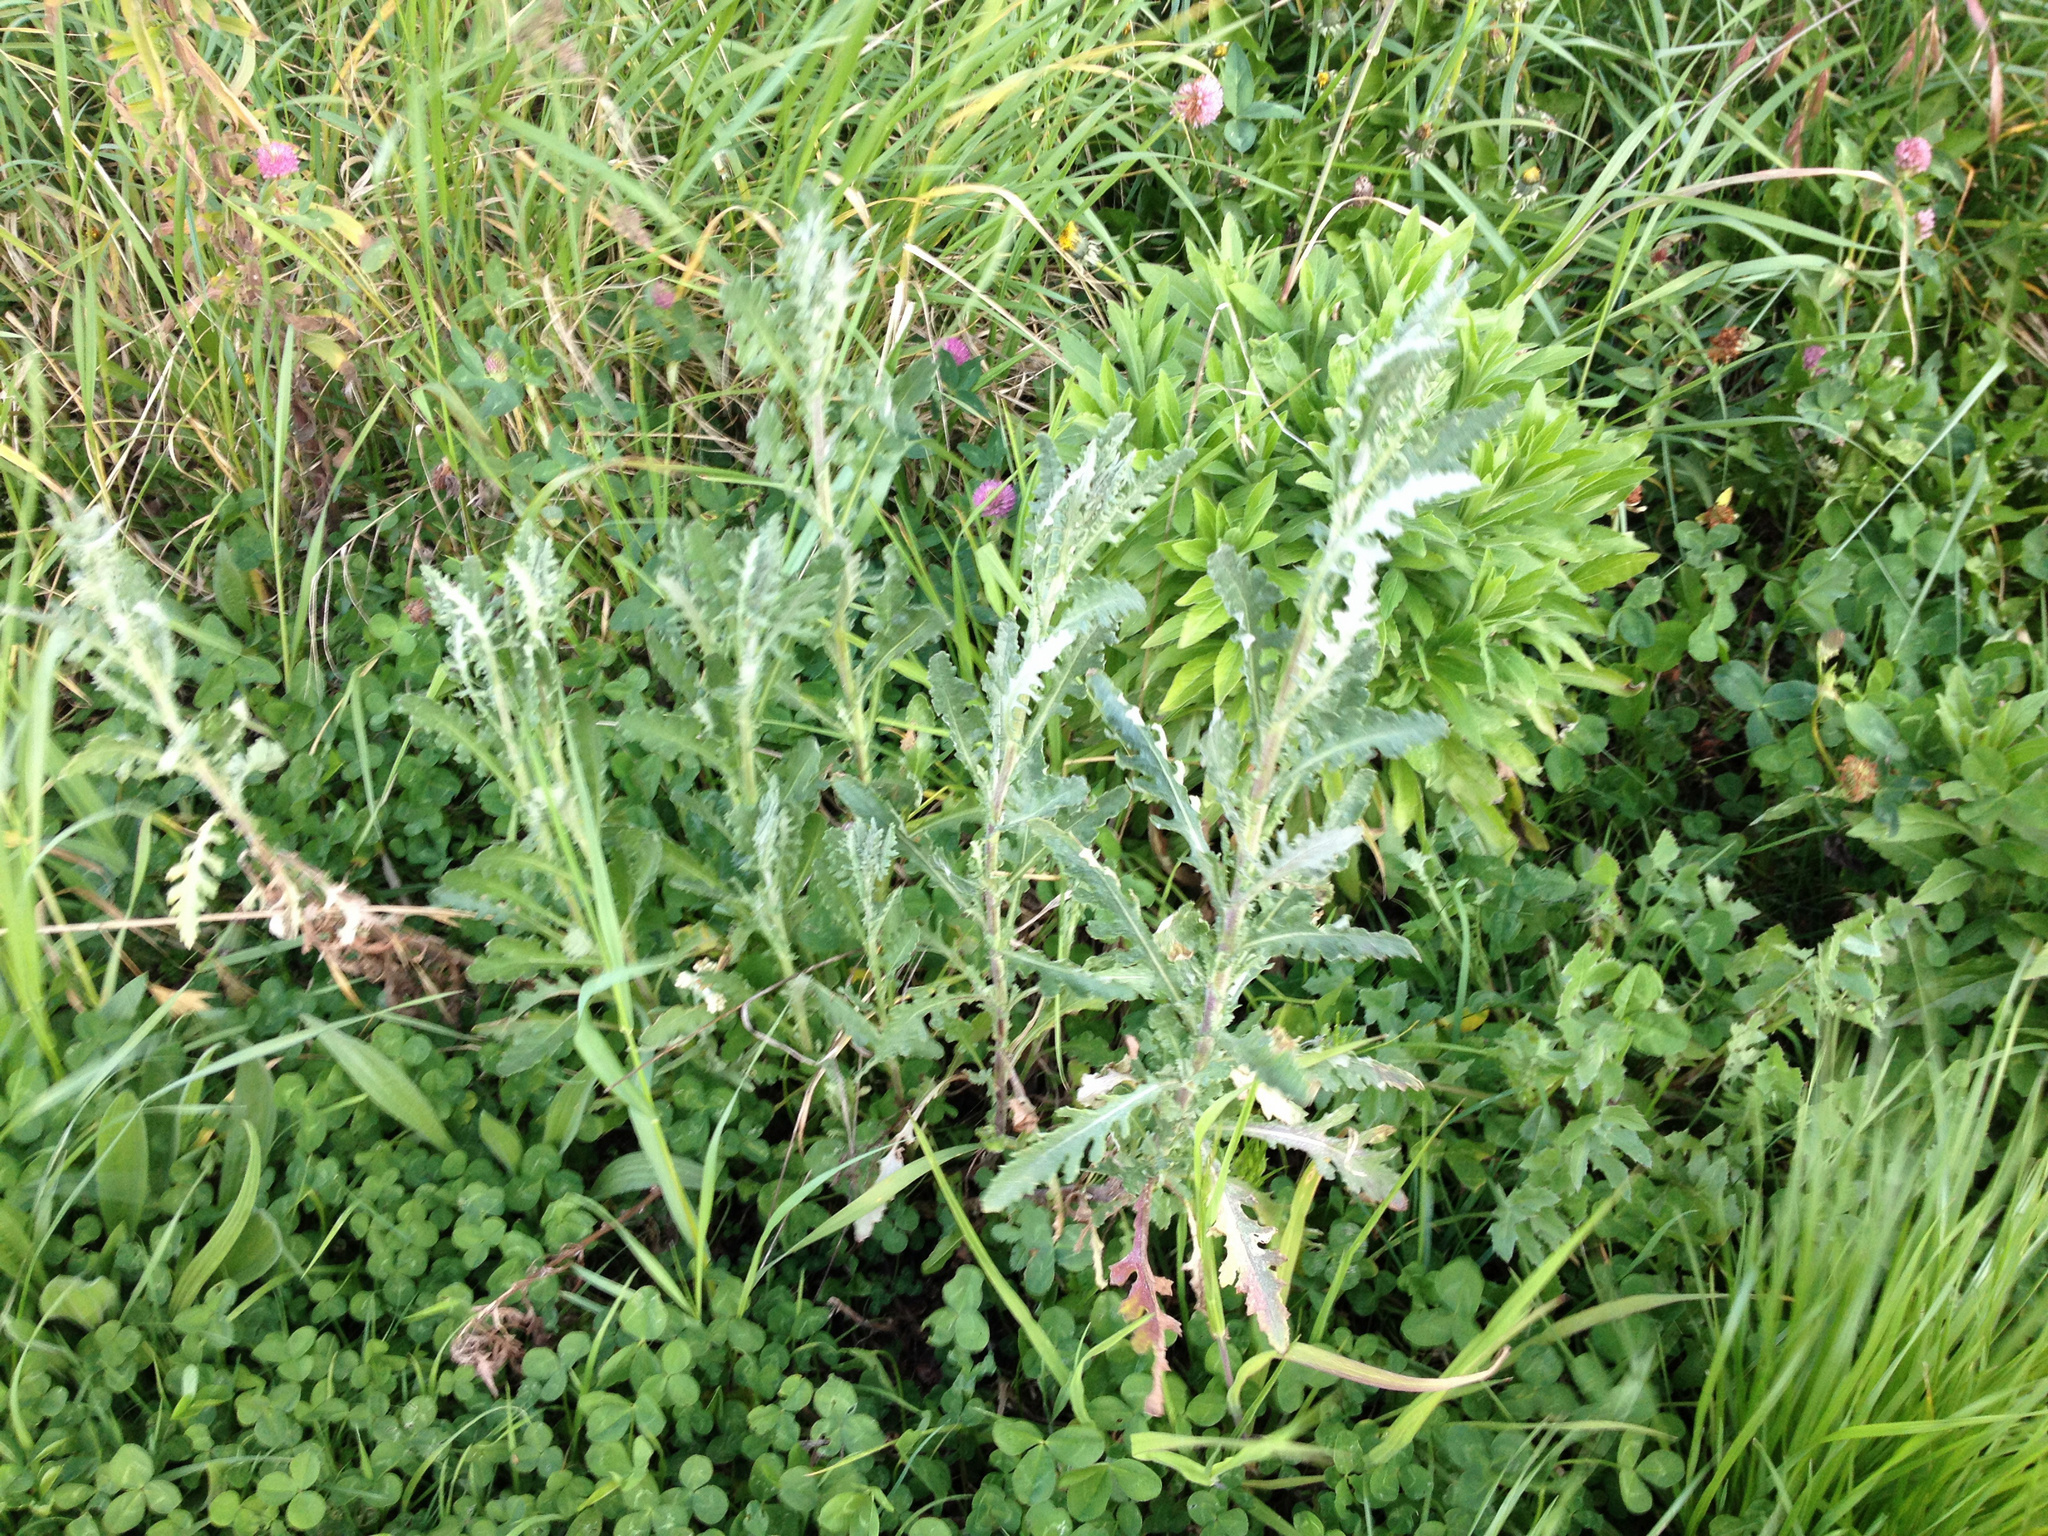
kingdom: Plantae
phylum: Tracheophyta
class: Magnoliopsida
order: Asterales
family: Asteraceae
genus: Senecio
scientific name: Senecio glomeratus
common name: Cutleaf burnweed
